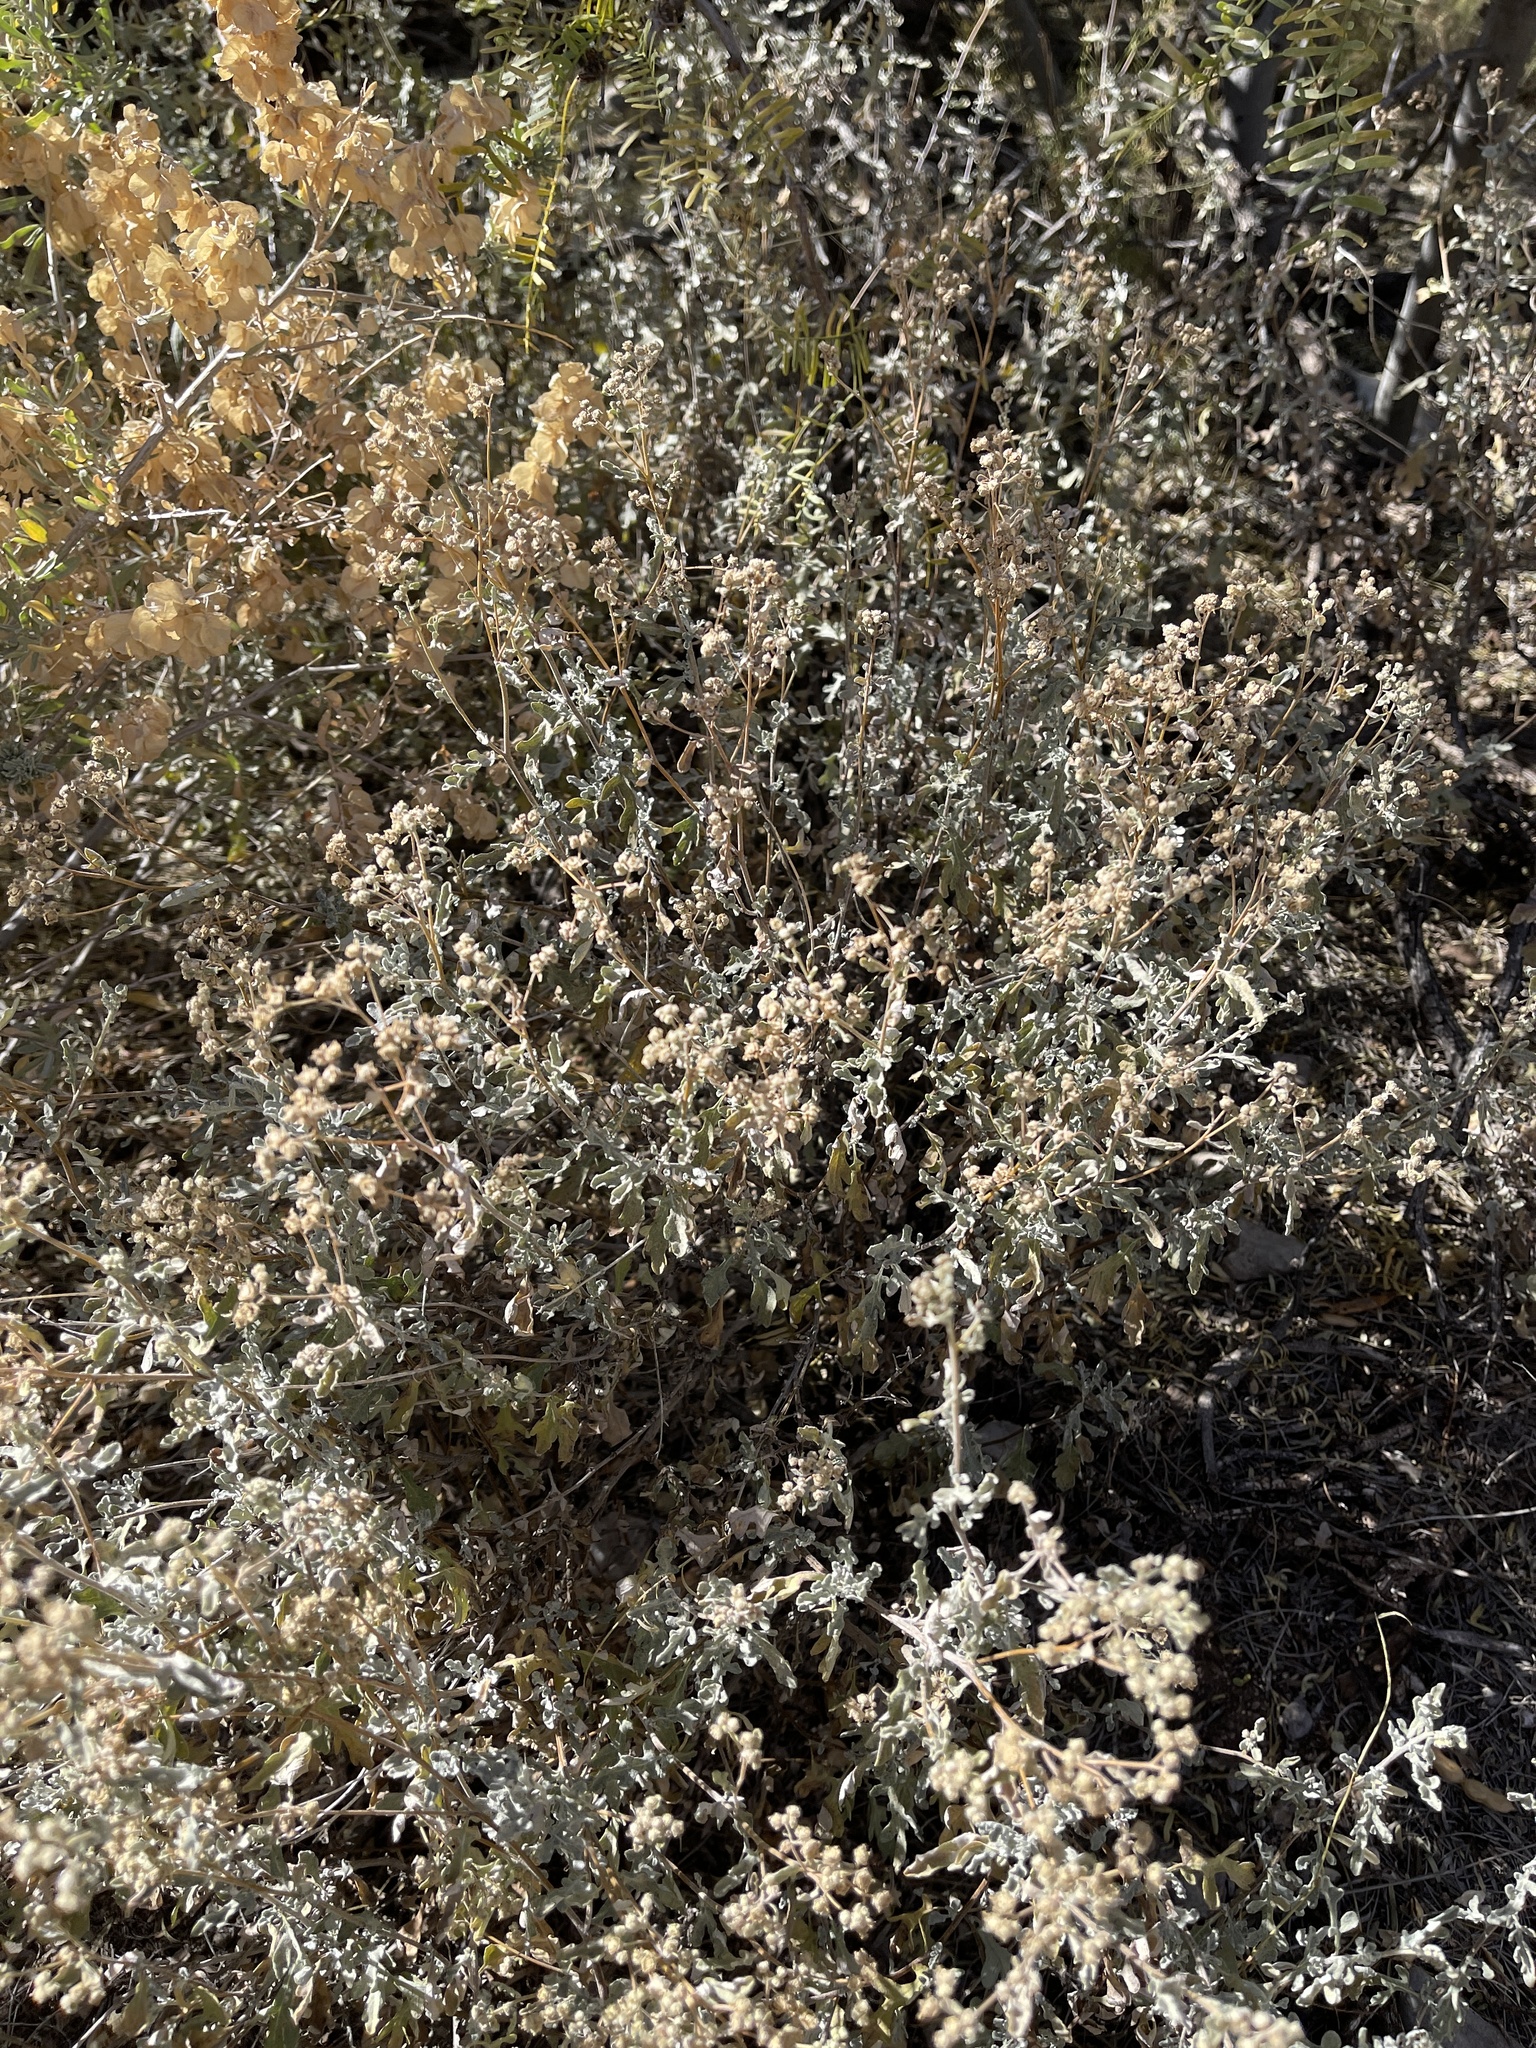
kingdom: Plantae
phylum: Tracheophyta
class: Magnoliopsida
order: Asterales
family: Asteraceae
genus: Parthenium
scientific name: Parthenium incanum
